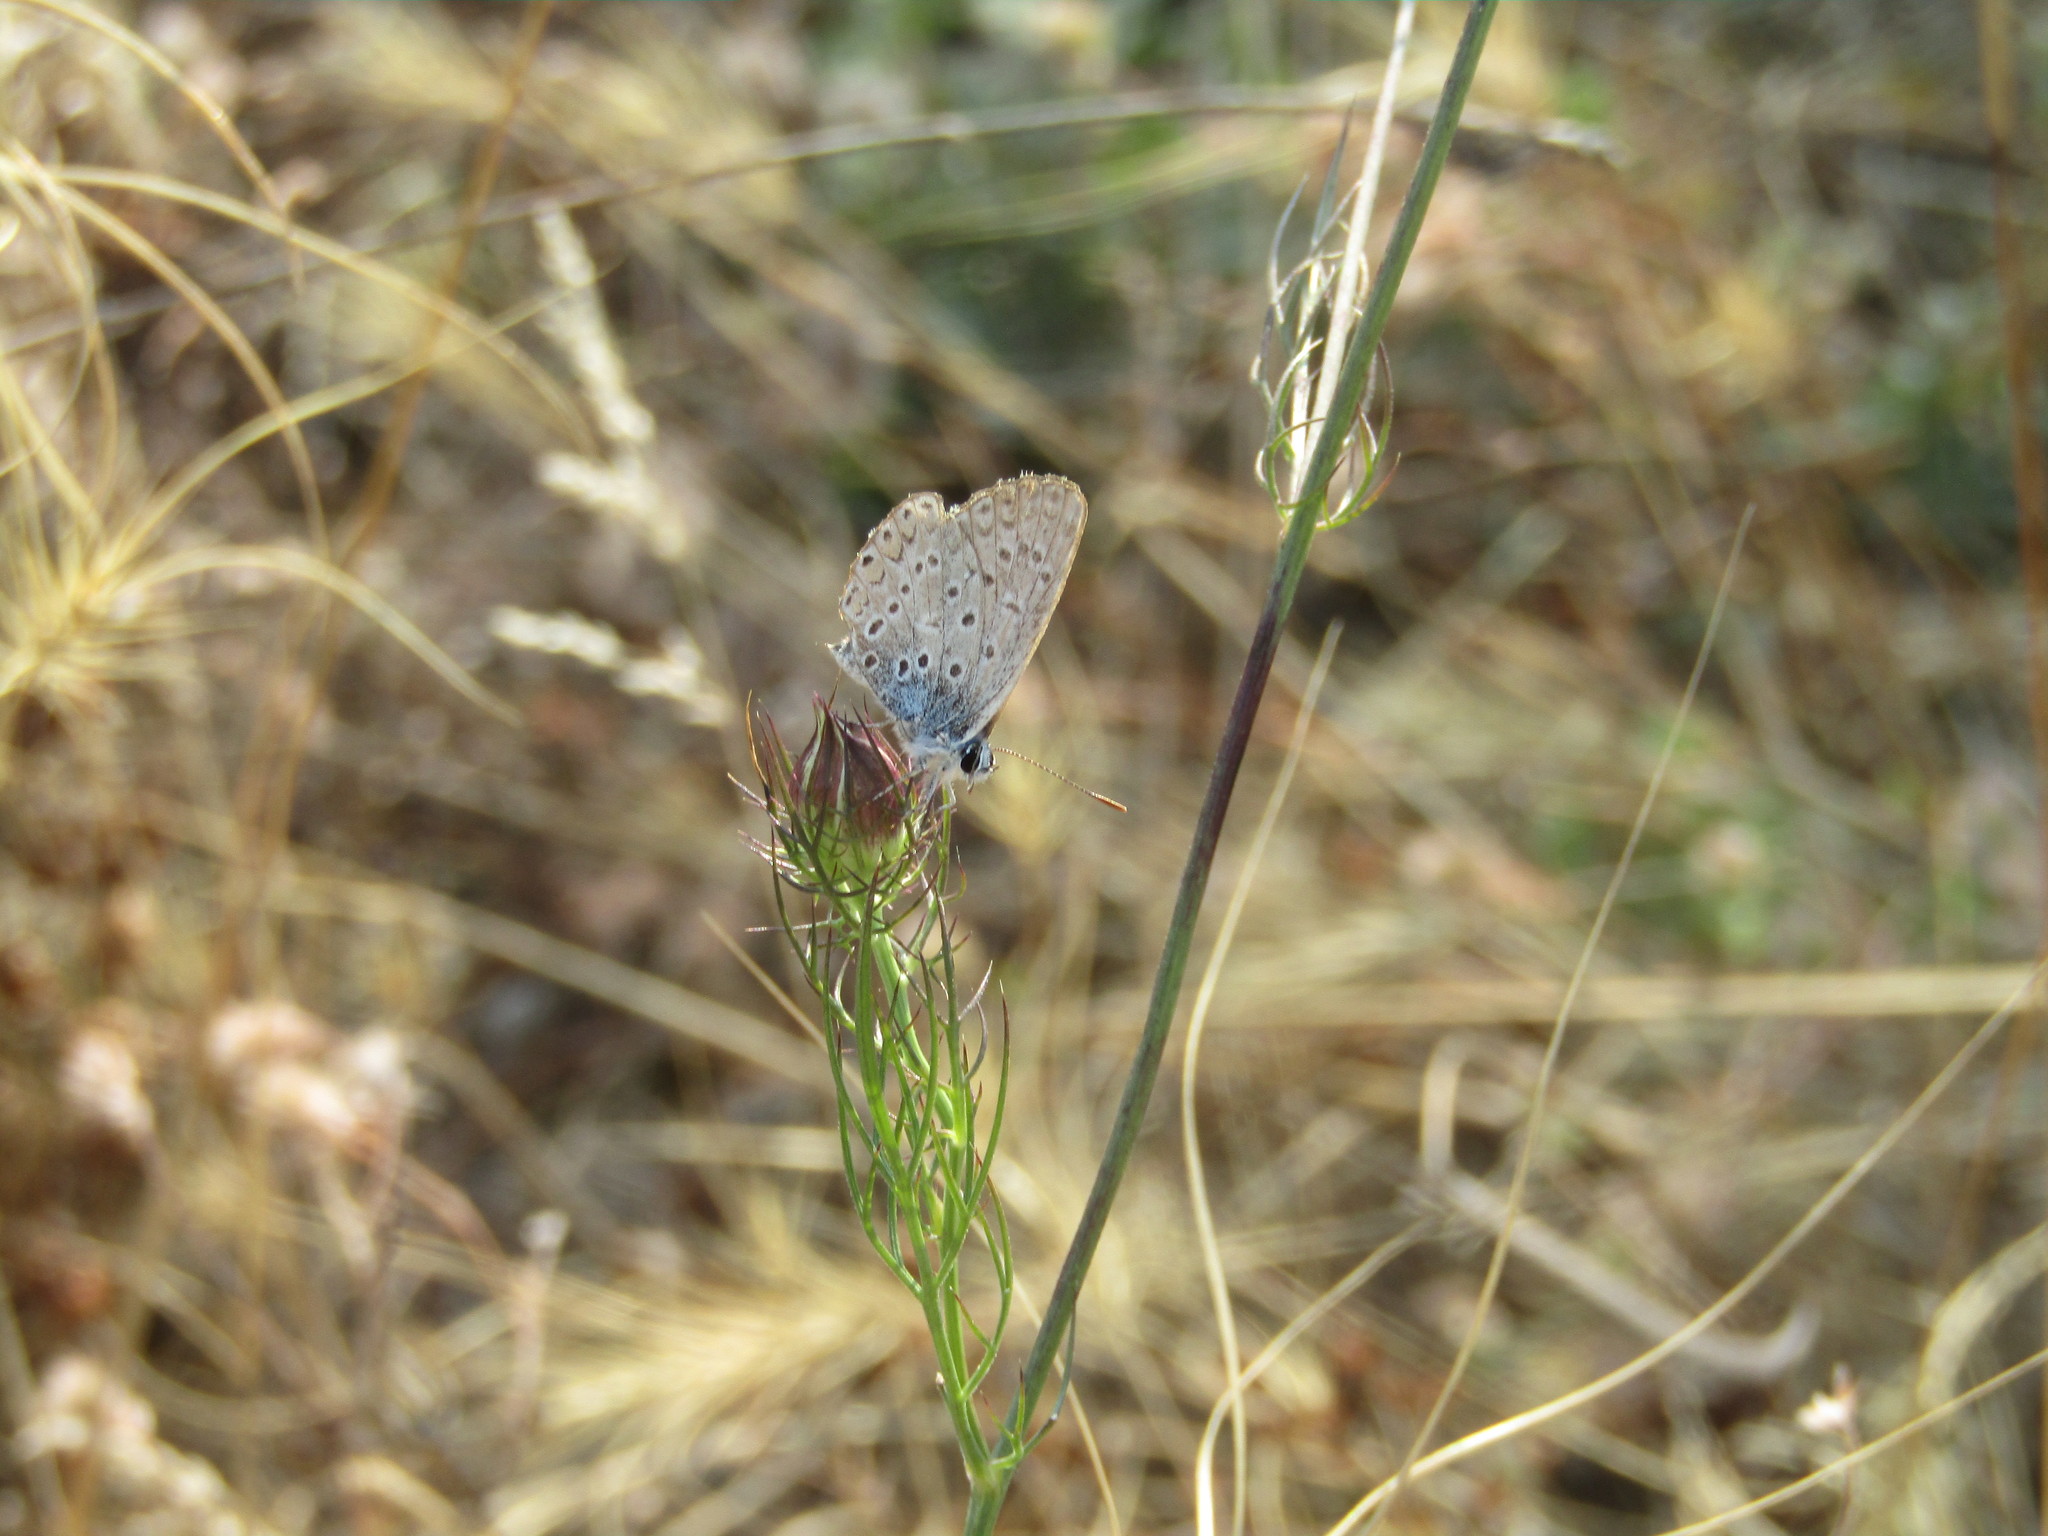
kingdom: Animalia
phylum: Arthropoda
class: Insecta
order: Lepidoptera
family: Lycaenidae
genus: Polyommatus
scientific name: Polyommatus icarus
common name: Common blue
